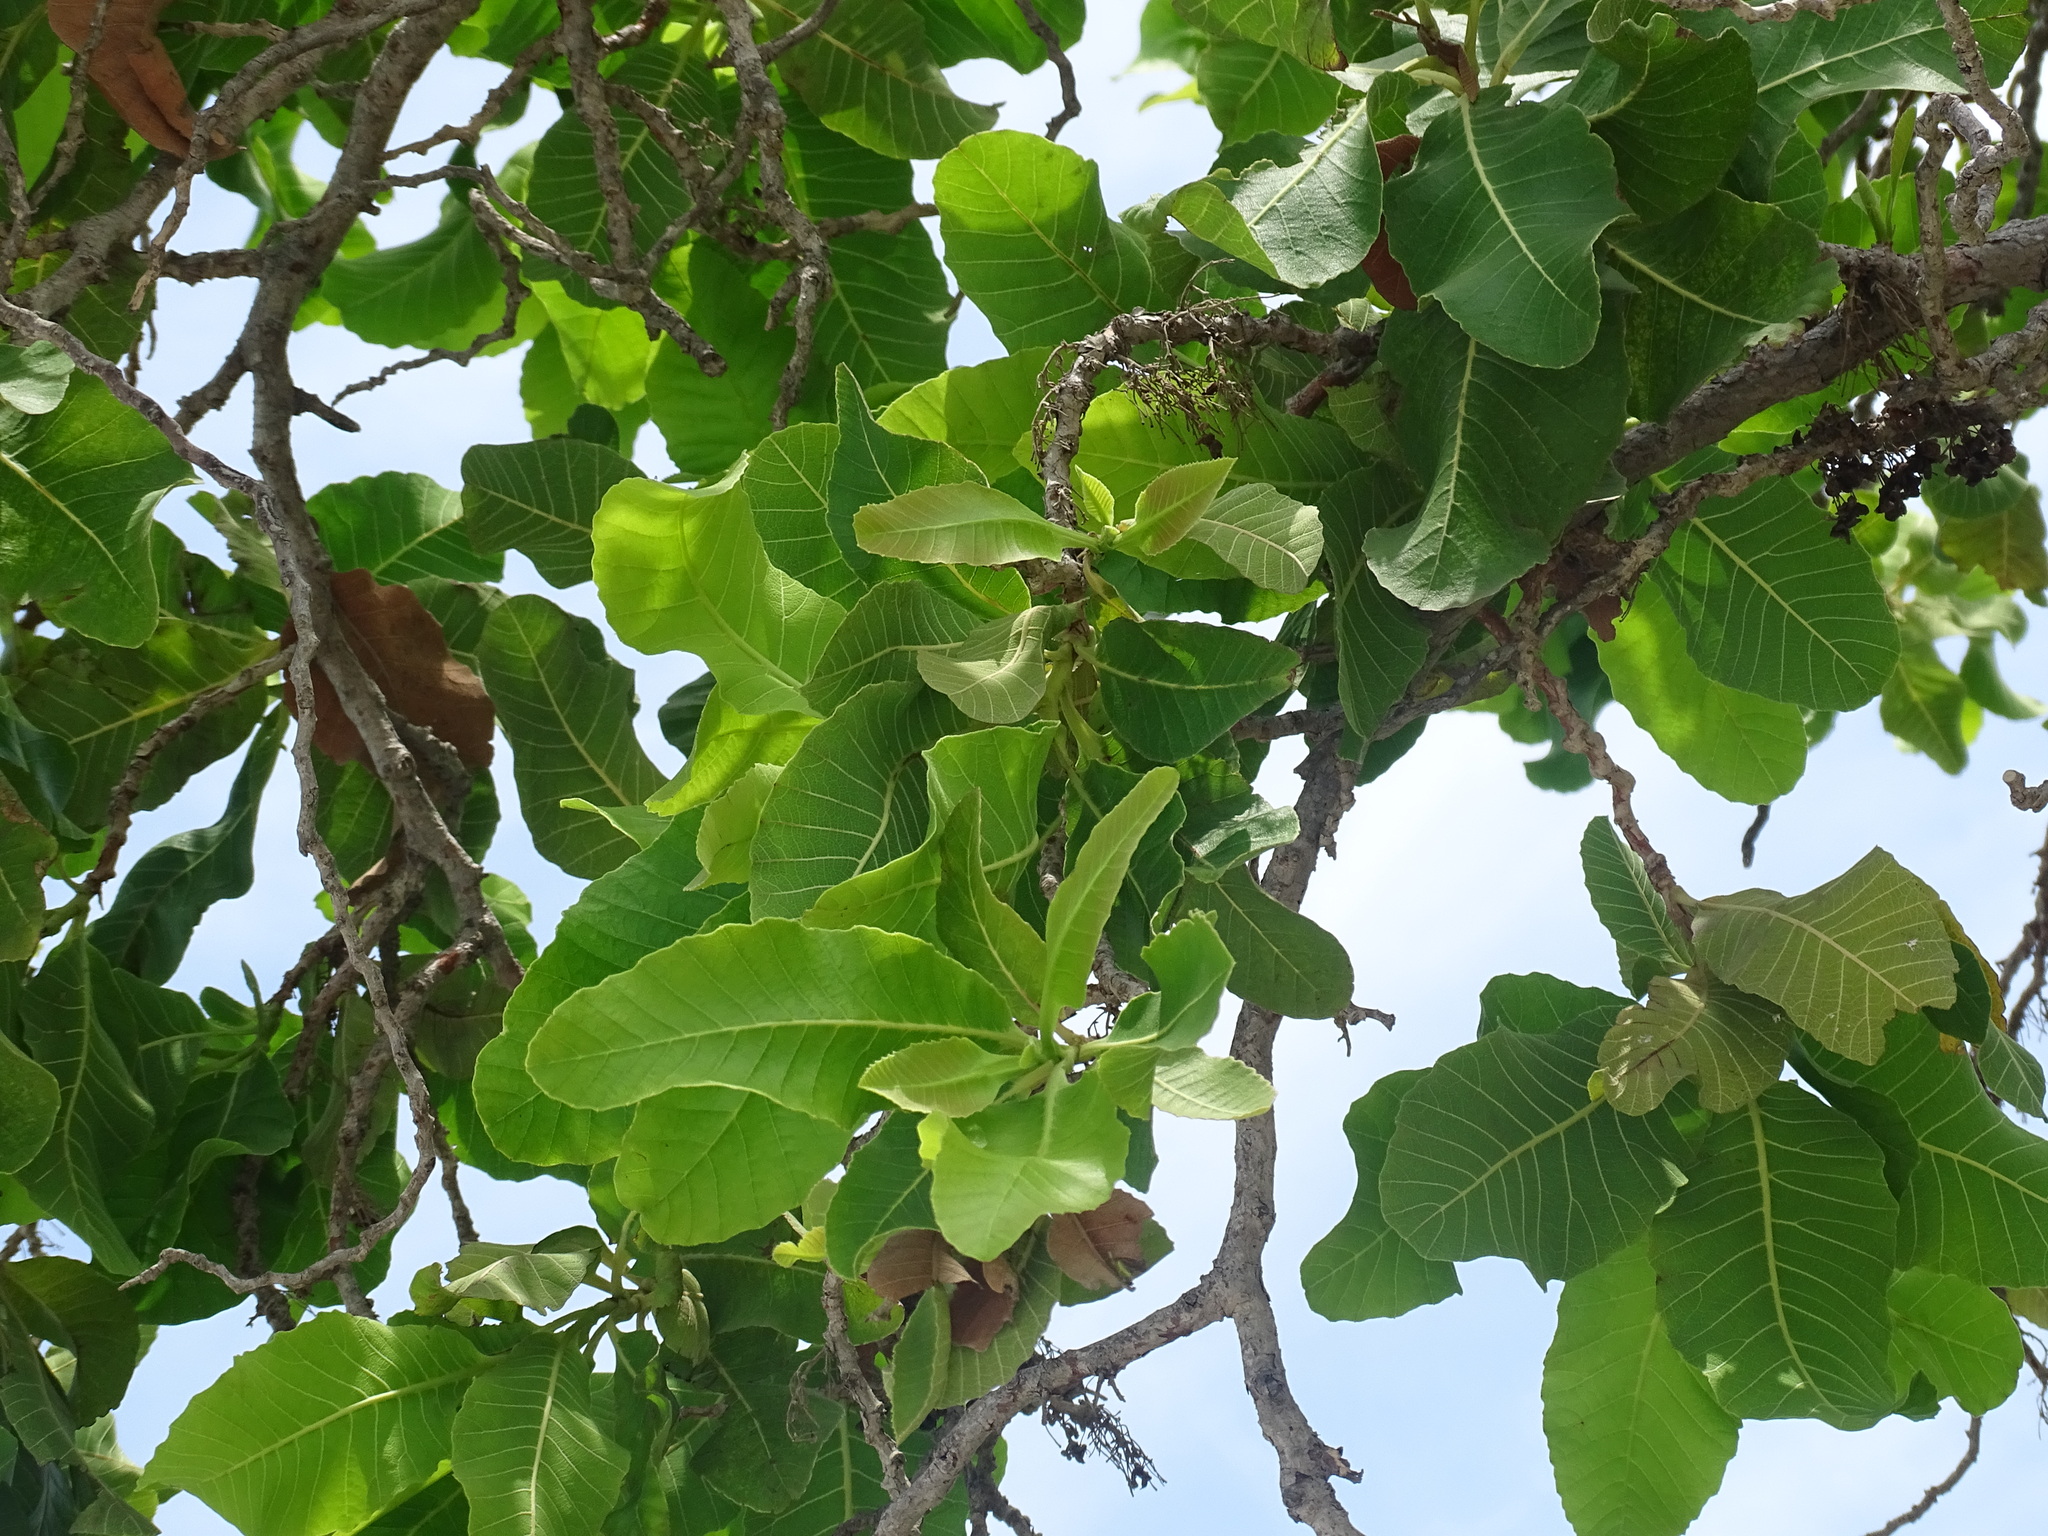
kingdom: Plantae
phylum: Tracheophyta
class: Magnoliopsida
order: Dilleniales
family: Dilleniaceae
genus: Curatella
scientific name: Curatella americana
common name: Sandpaper tree
